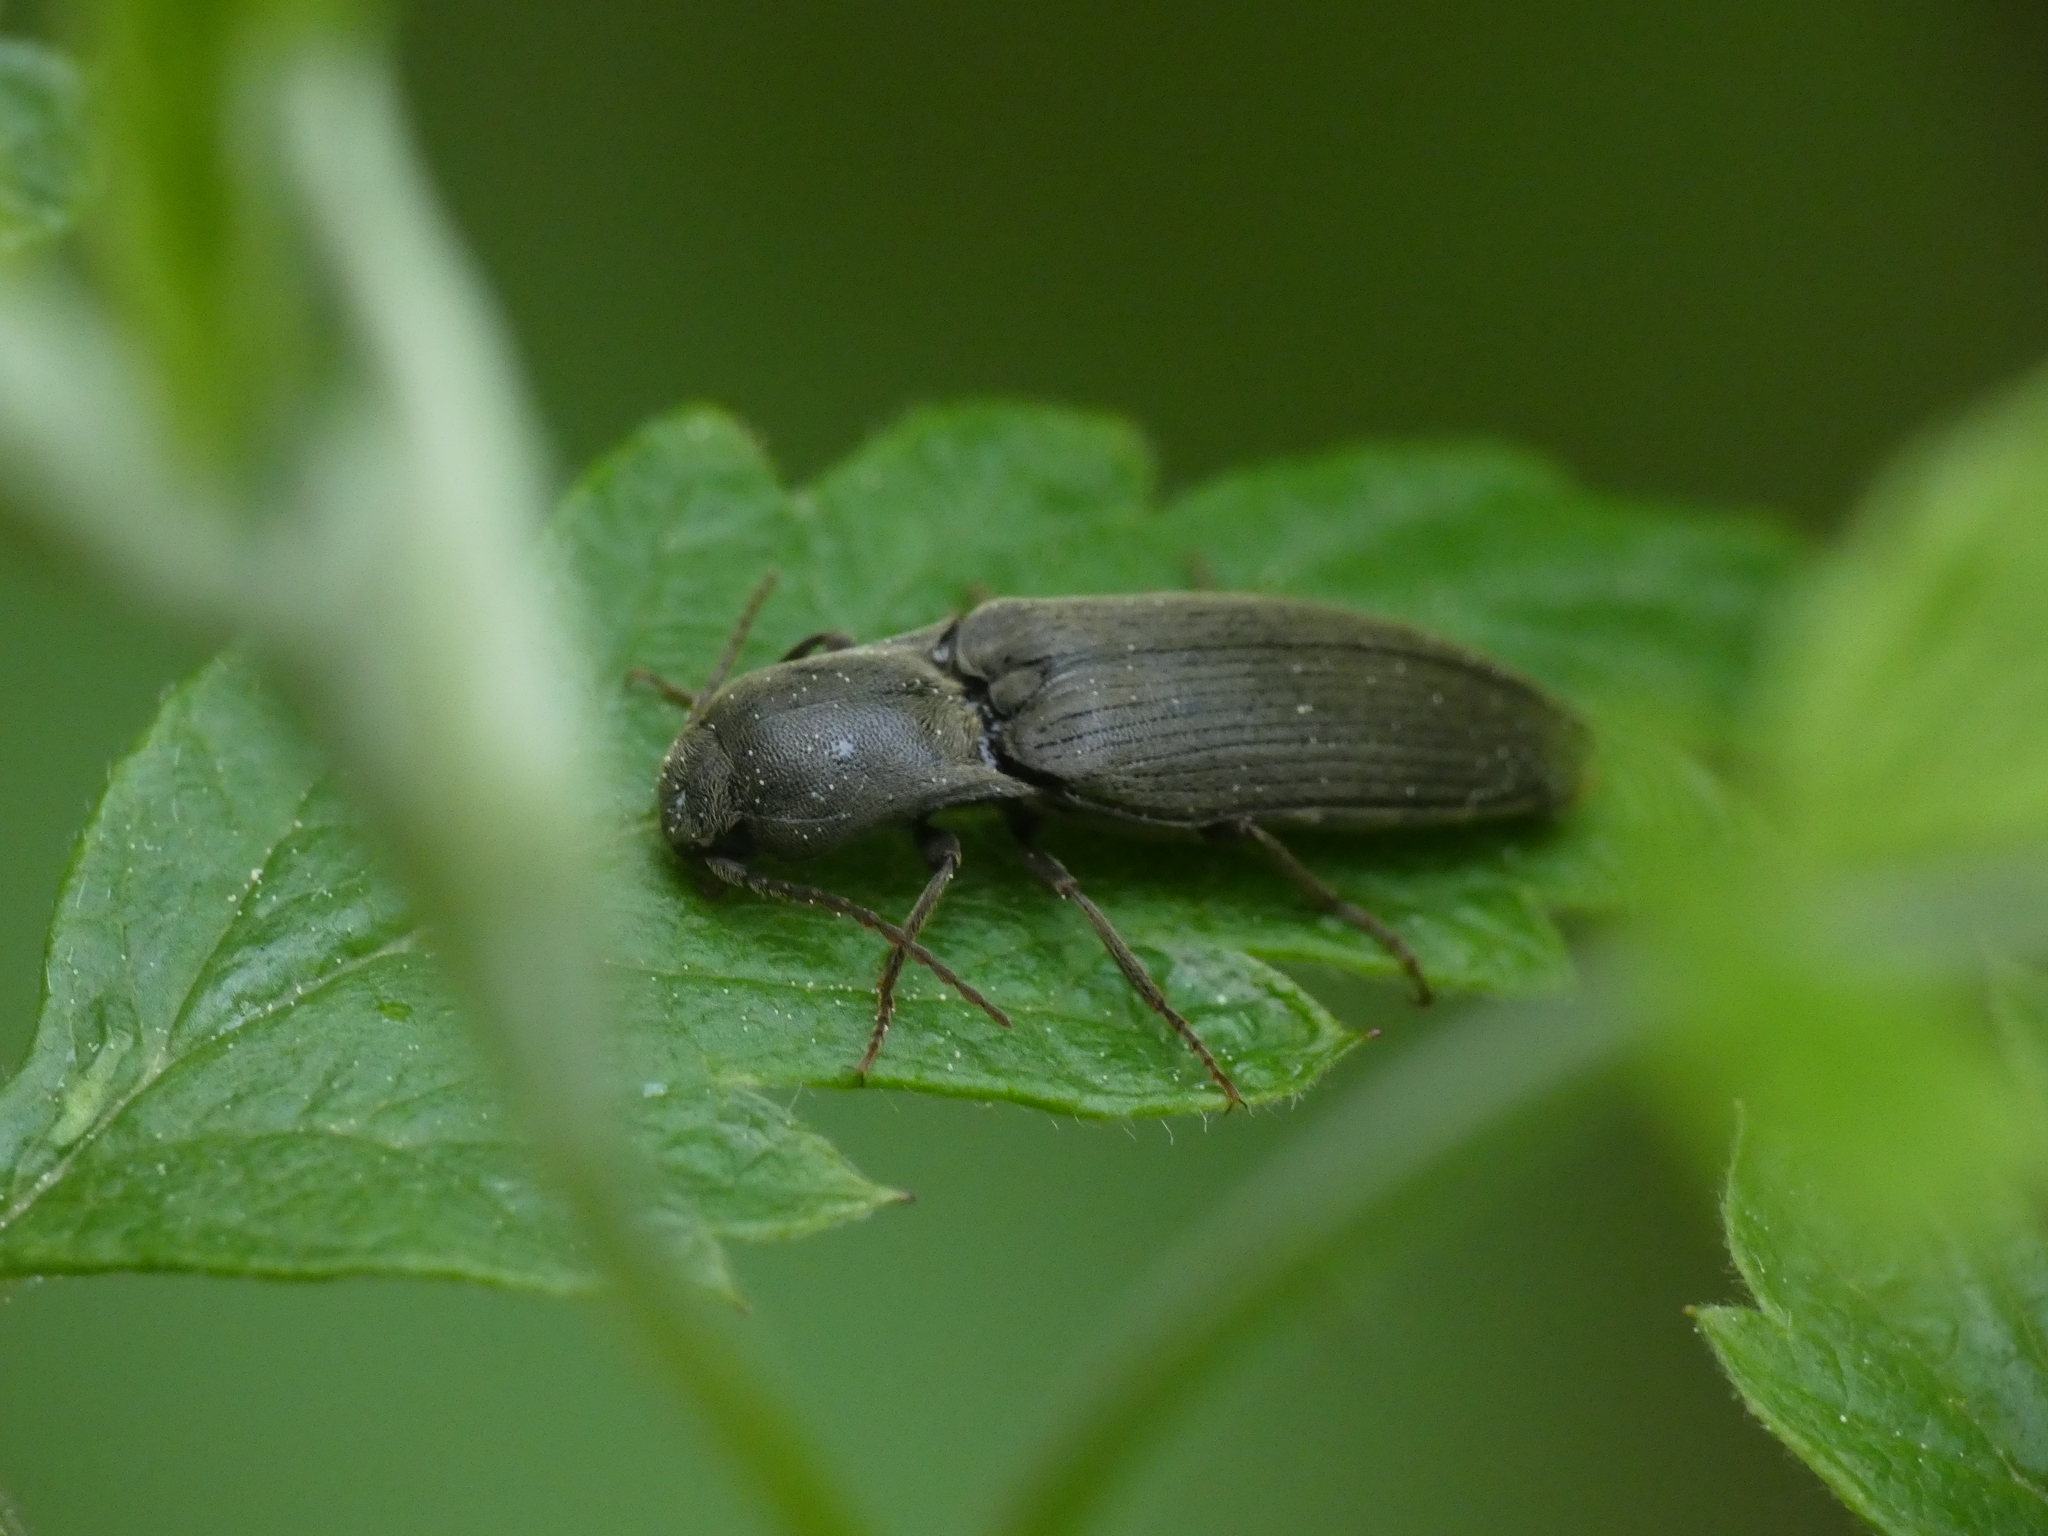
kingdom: Animalia
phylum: Arthropoda
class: Insecta
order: Coleoptera
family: Elateridae
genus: Agriotes
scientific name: Agriotes pilosellus
